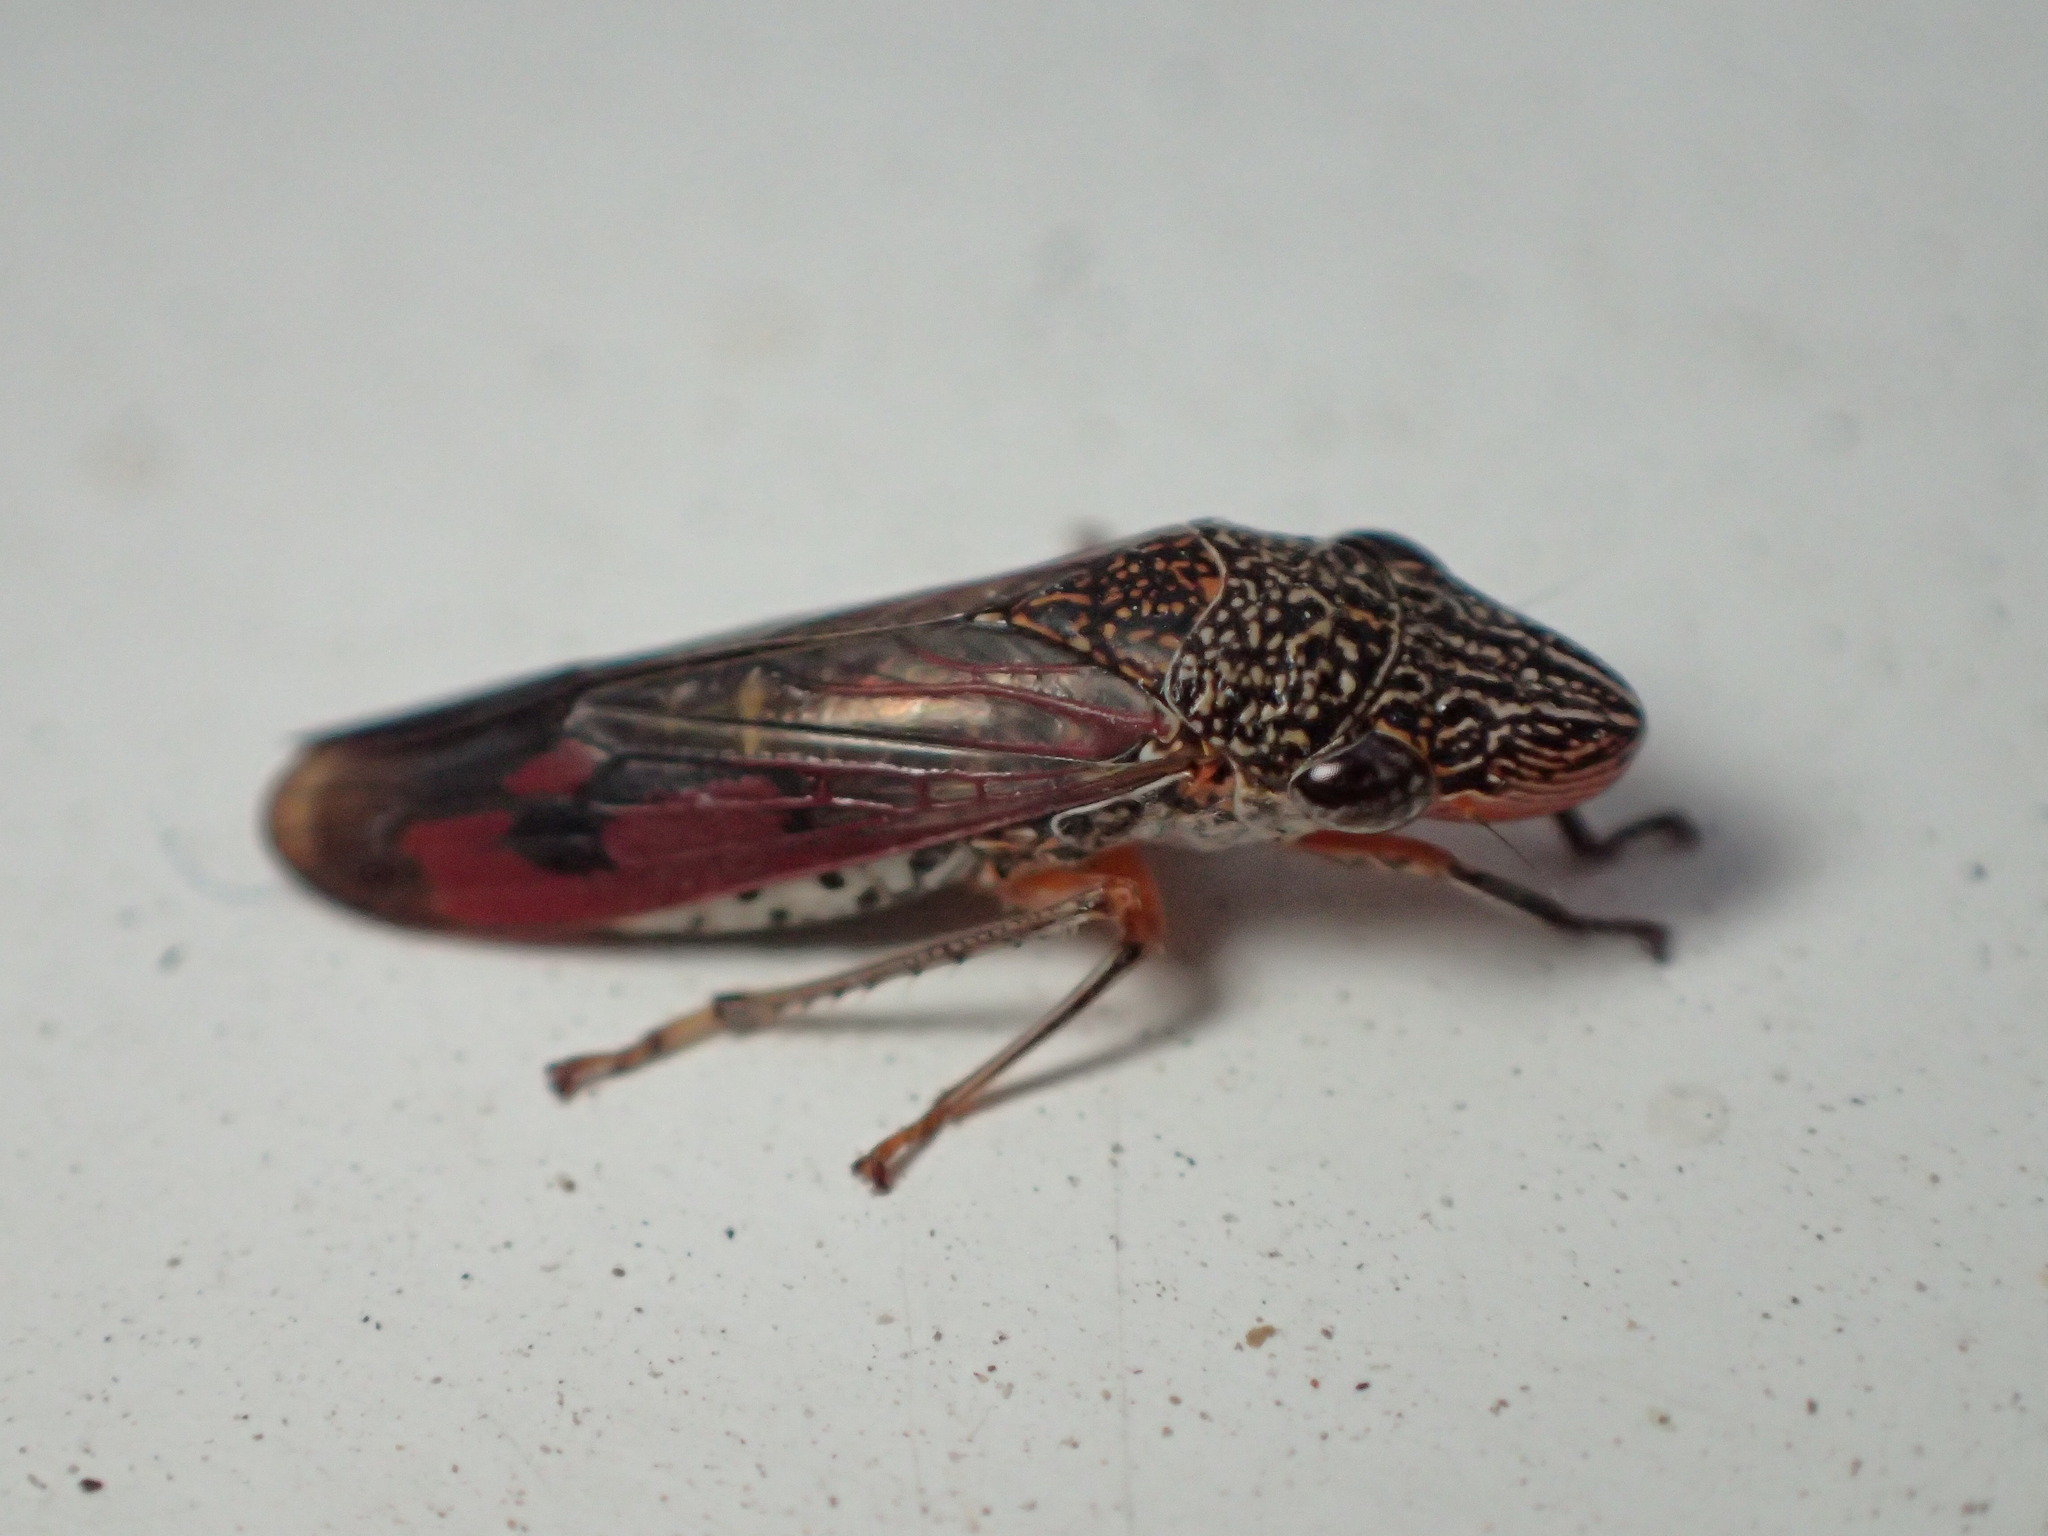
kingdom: Animalia
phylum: Arthropoda
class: Insecta
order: Hemiptera
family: Cicadellidae
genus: Homalodisca
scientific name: Homalodisca liturata
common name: Lacertate sharpshooter
